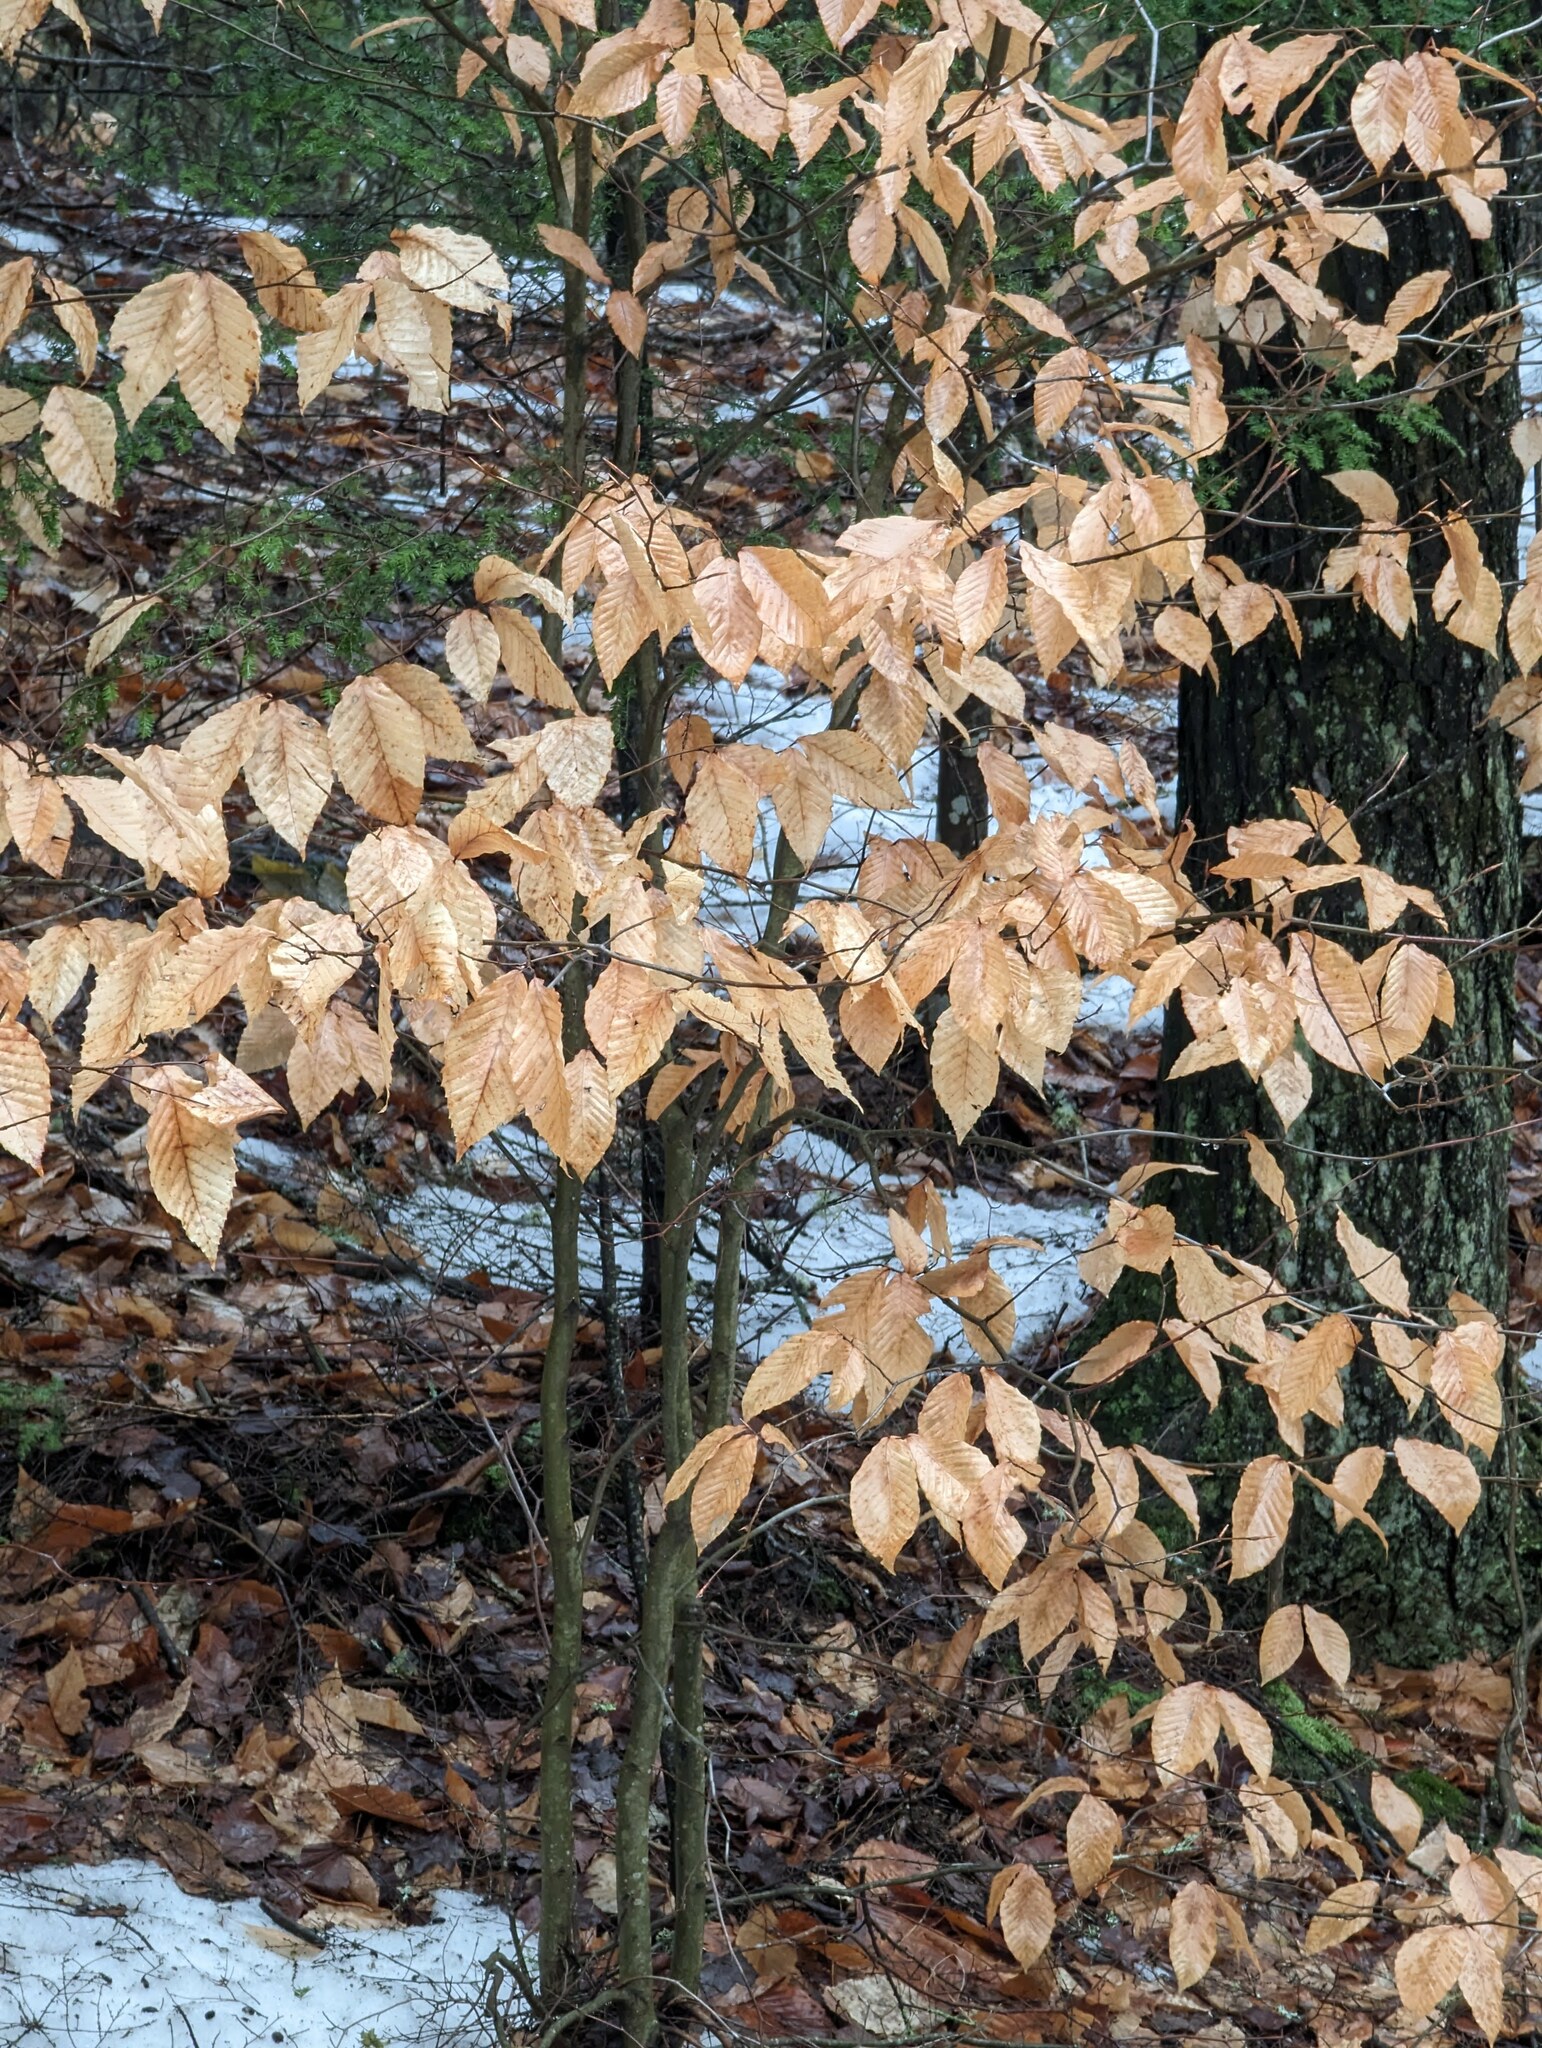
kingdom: Plantae
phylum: Tracheophyta
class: Magnoliopsida
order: Fagales
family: Fagaceae
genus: Fagus
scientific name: Fagus grandifolia
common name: American beech
